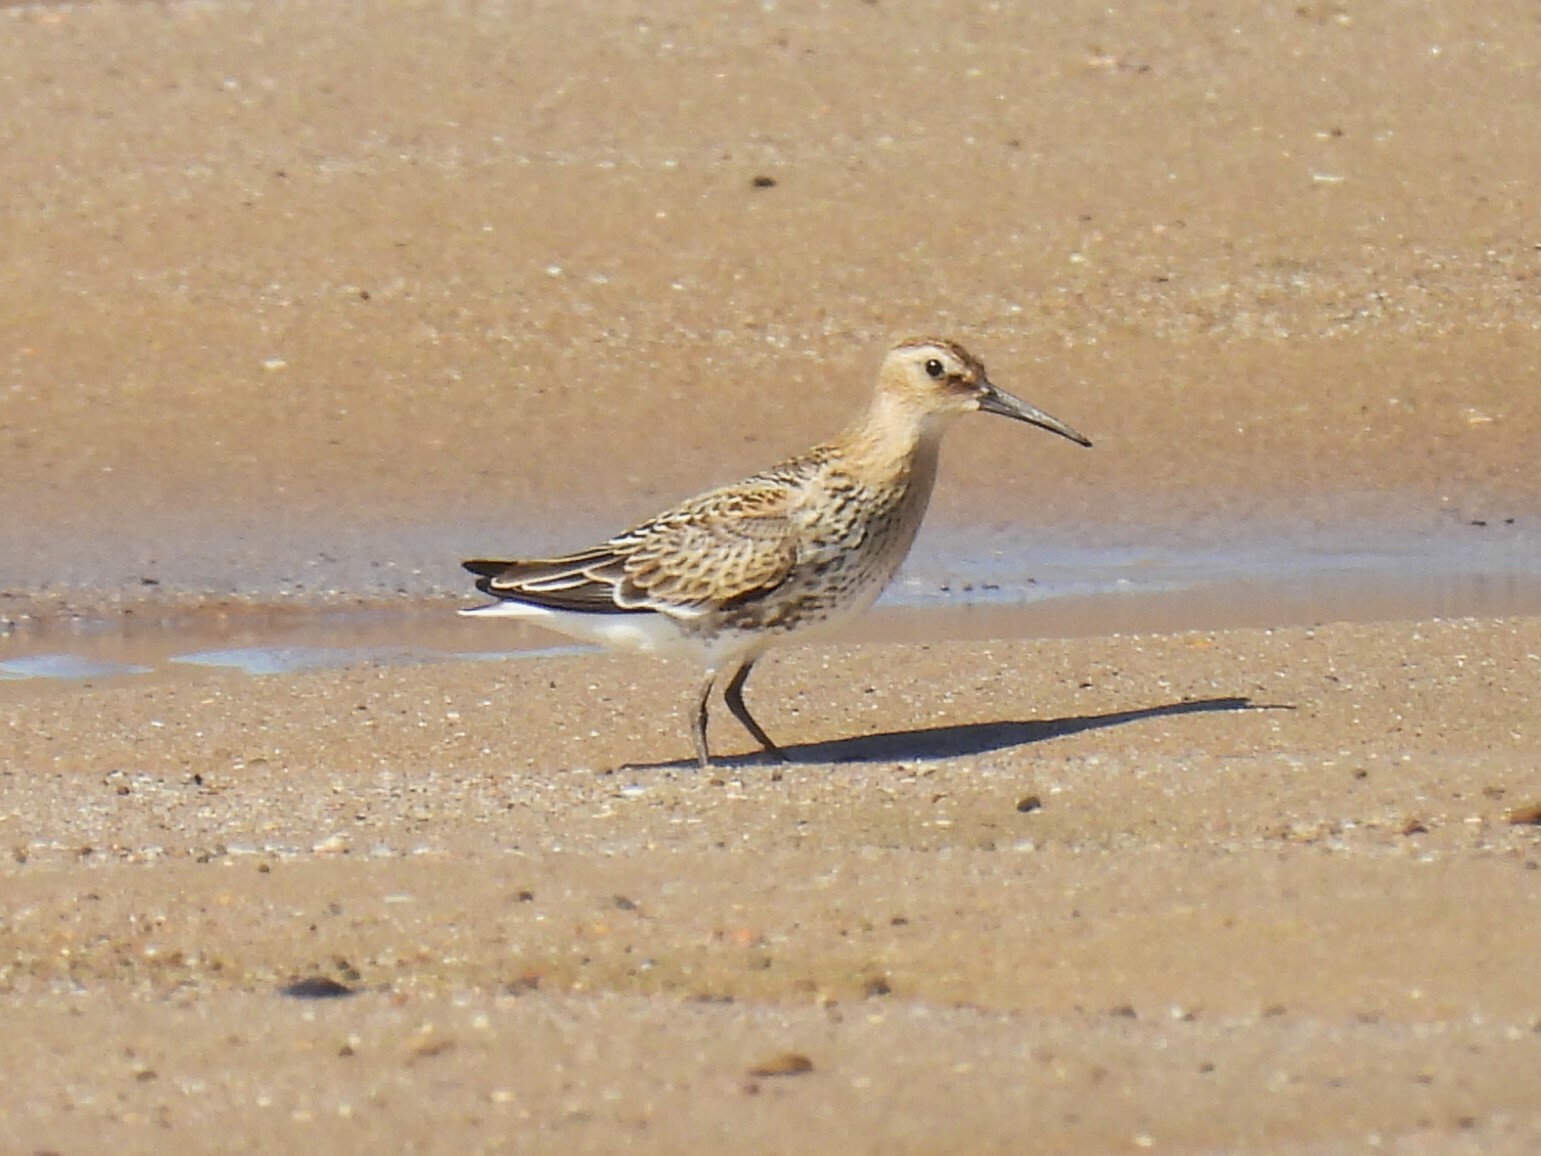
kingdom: Animalia
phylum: Chordata
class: Aves
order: Charadriiformes
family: Scolopacidae
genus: Calidris
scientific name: Calidris alpina
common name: Dunlin
